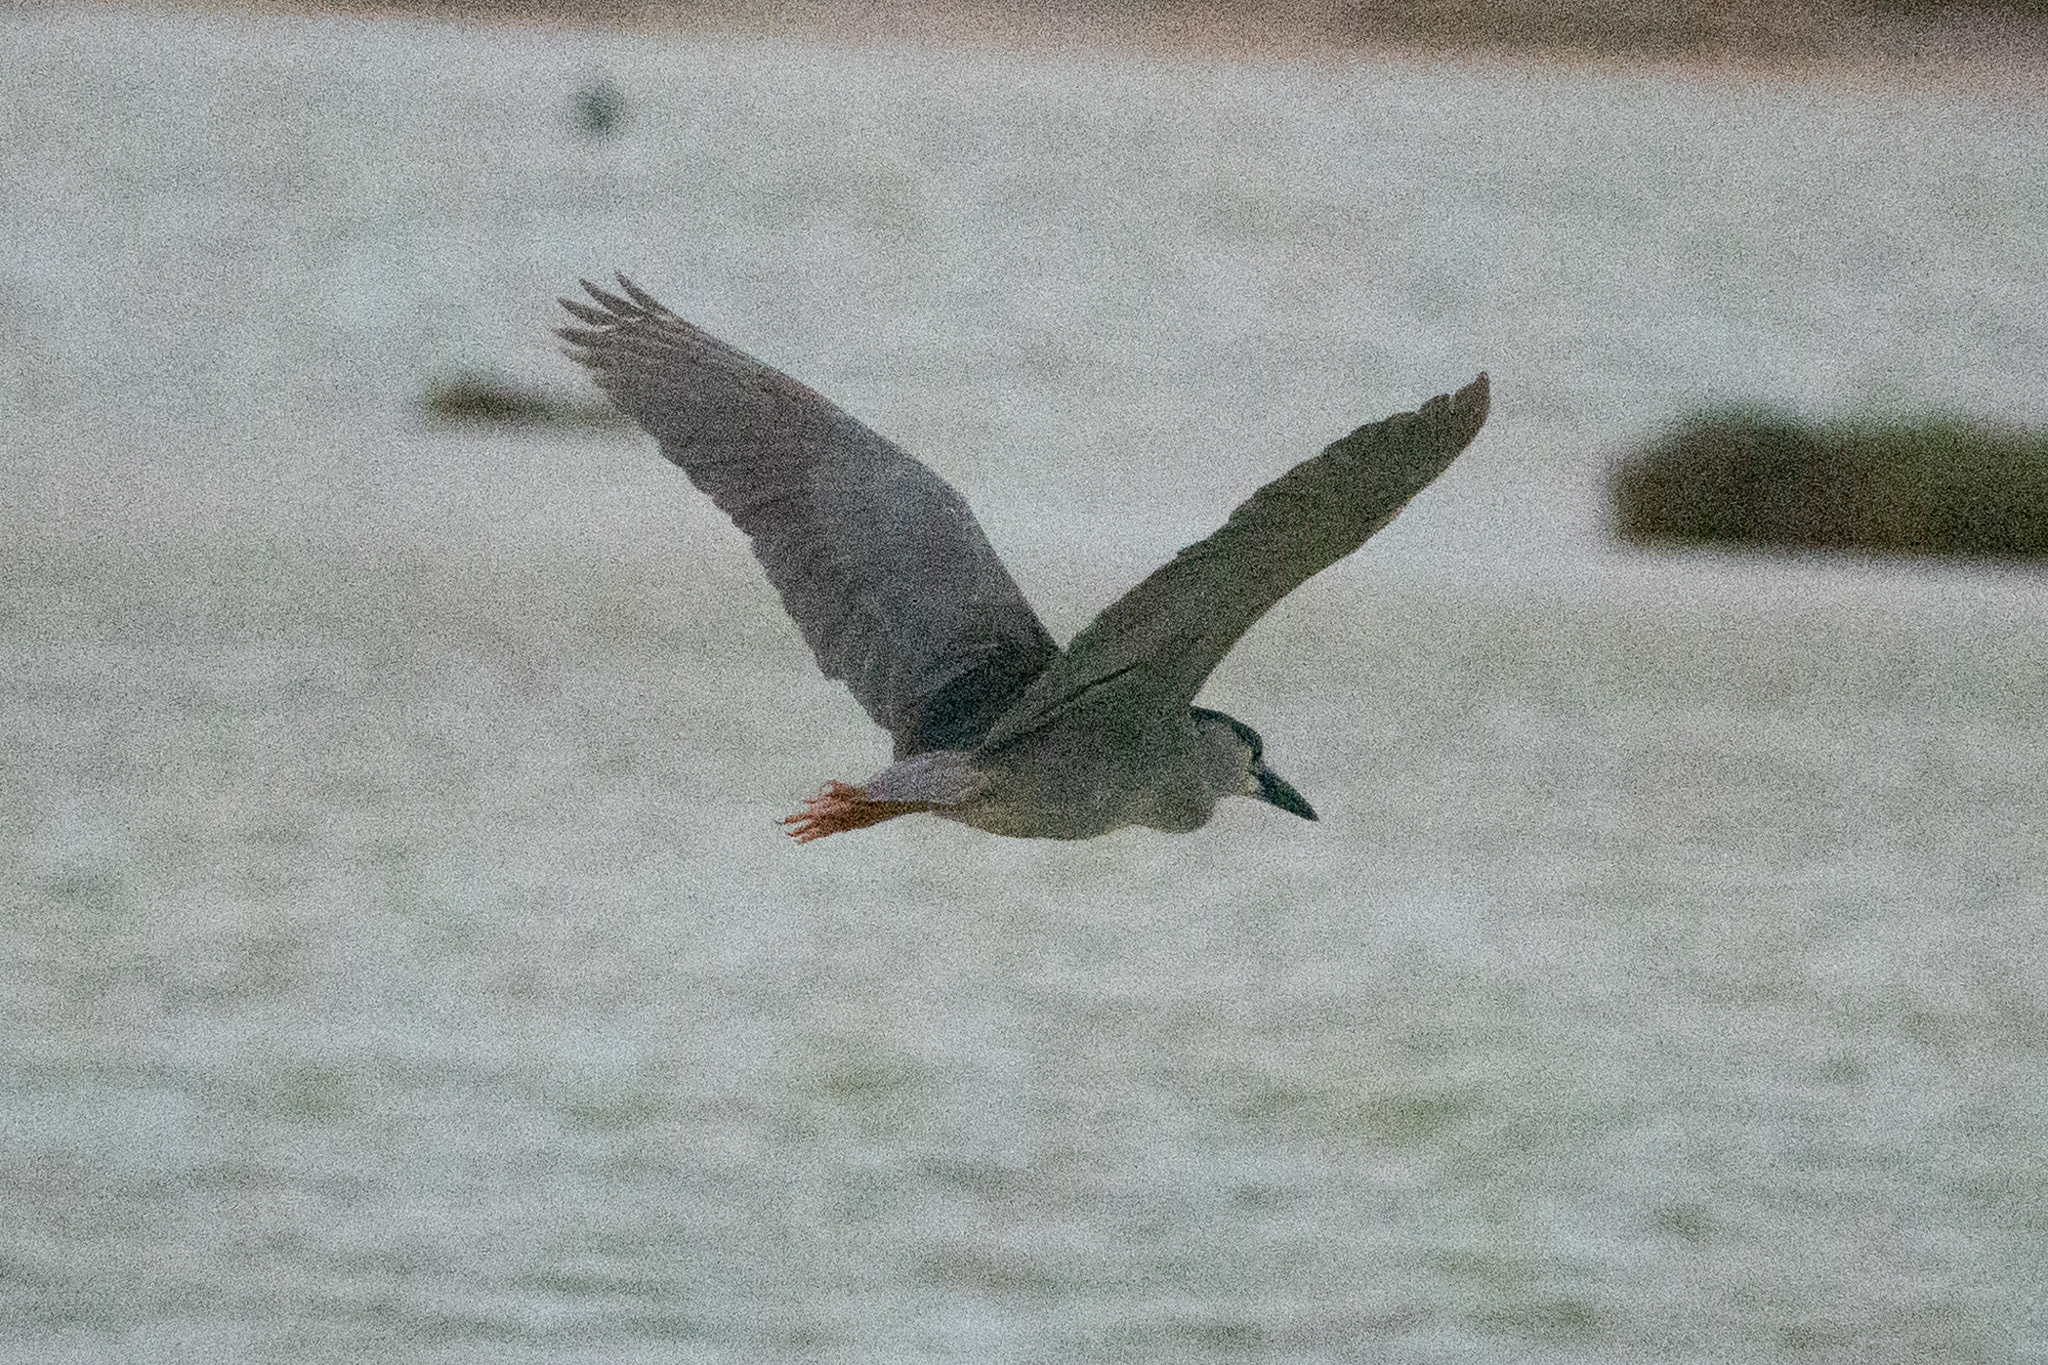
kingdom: Animalia
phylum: Chordata
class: Aves
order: Pelecaniformes
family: Ardeidae
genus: Nycticorax
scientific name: Nycticorax nycticorax
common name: Black-crowned night heron
